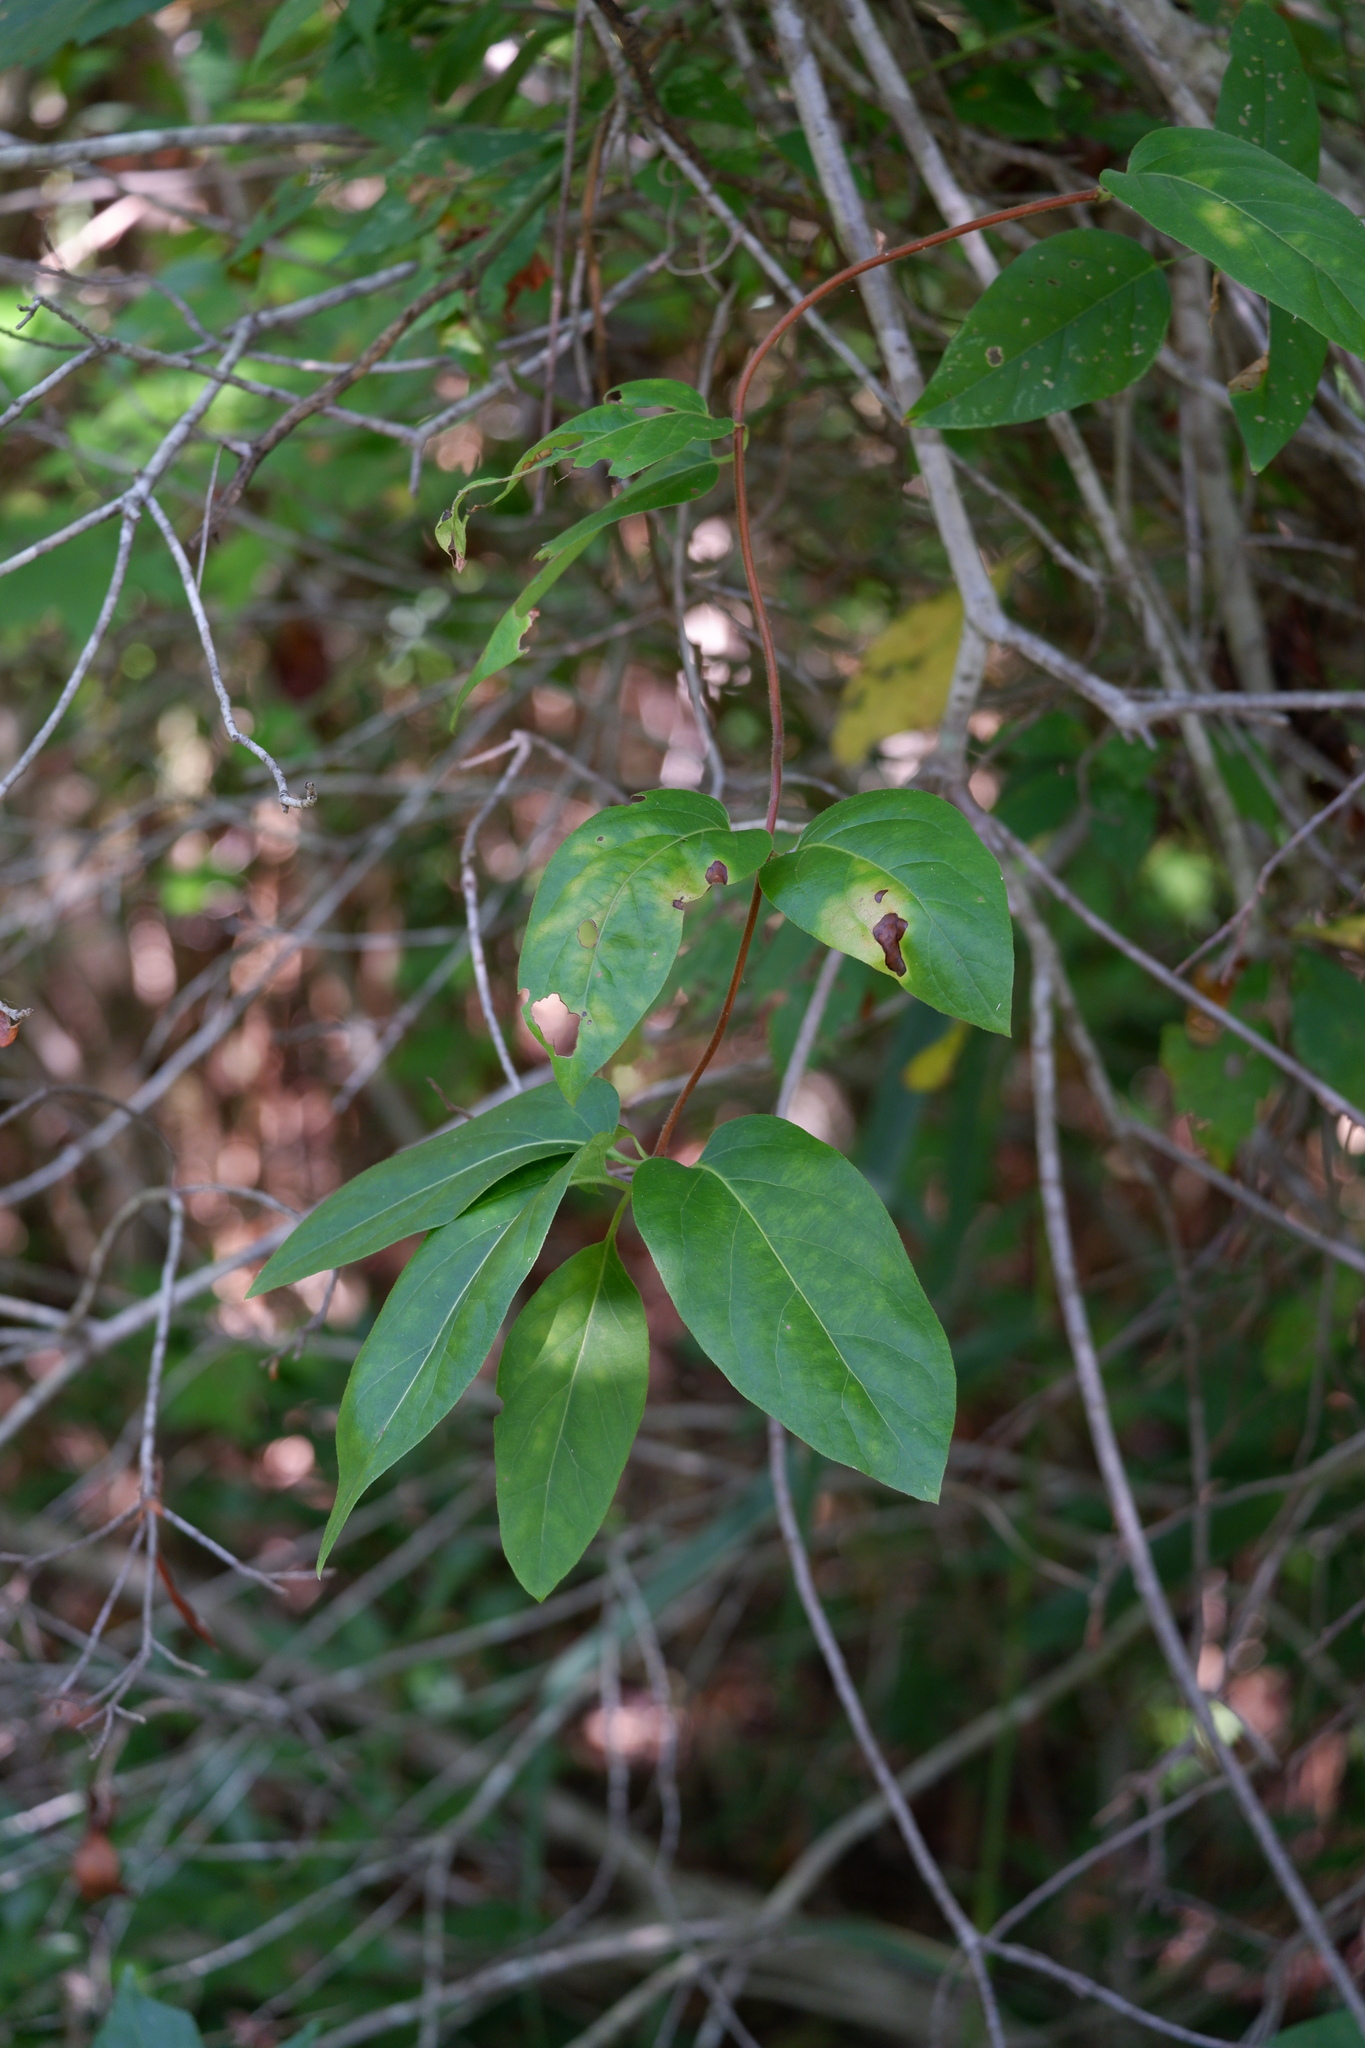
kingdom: Plantae
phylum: Tracheophyta
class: Magnoliopsida
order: Dipsacales
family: Caprifoliaceae
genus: Lonicera
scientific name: Lonicera japonica
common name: Japanese honeysuckle
